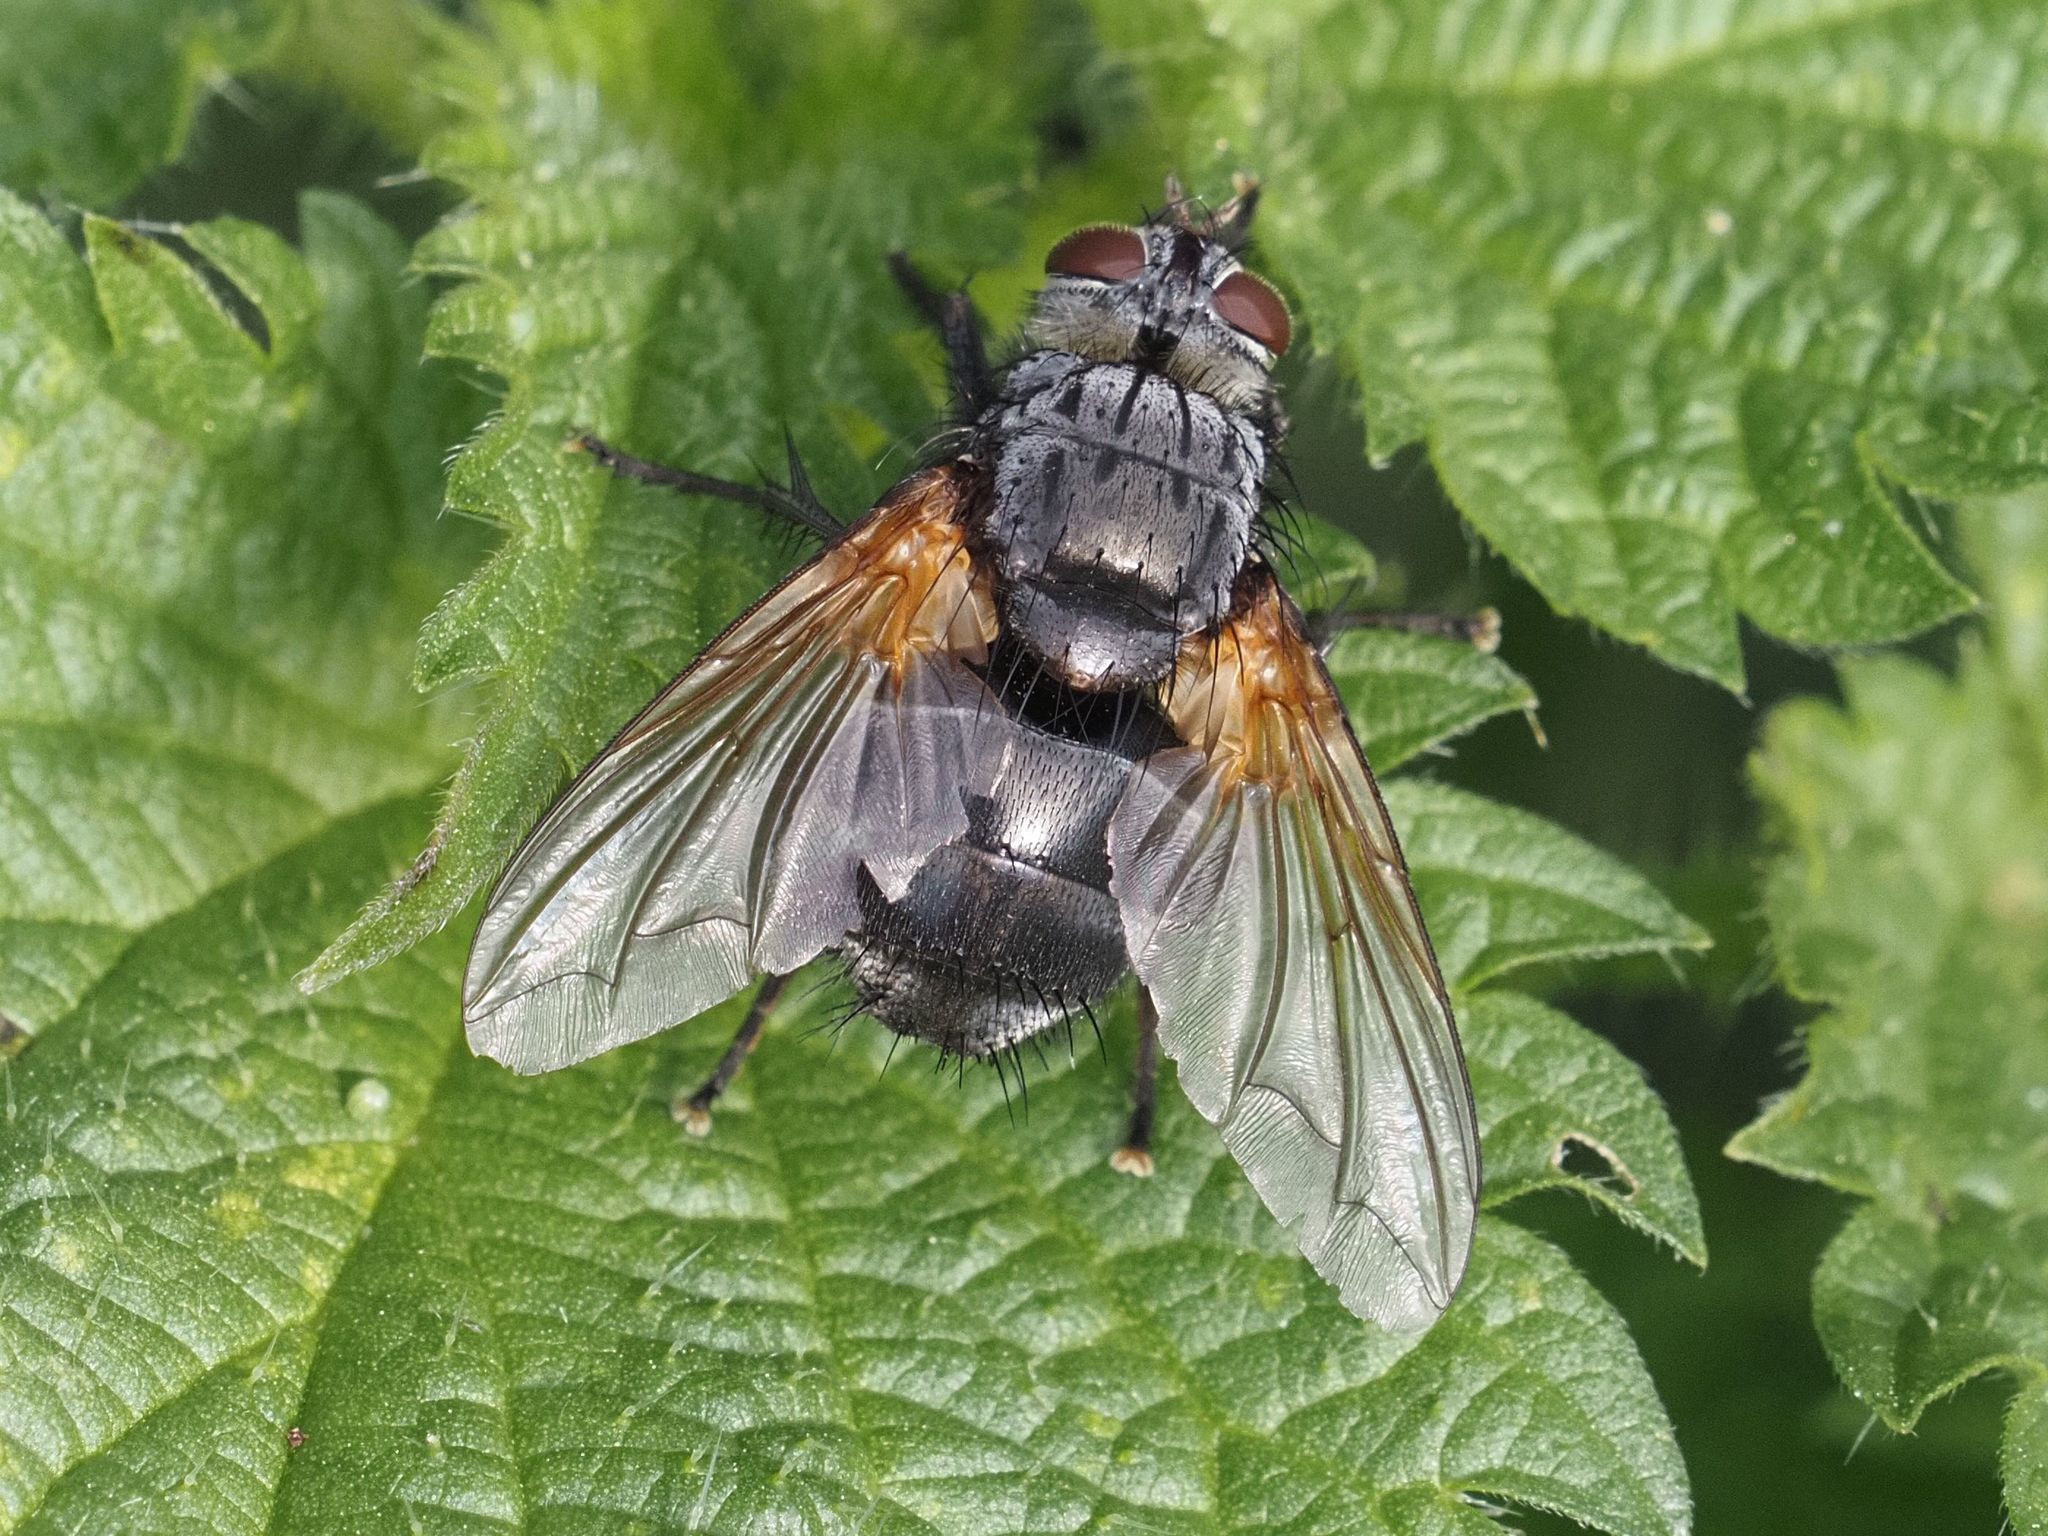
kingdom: Animalia
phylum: Arthropoda
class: Insecta
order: Diptera
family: Tachinidae
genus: Nemoraea
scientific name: Nemoraea pellucida
